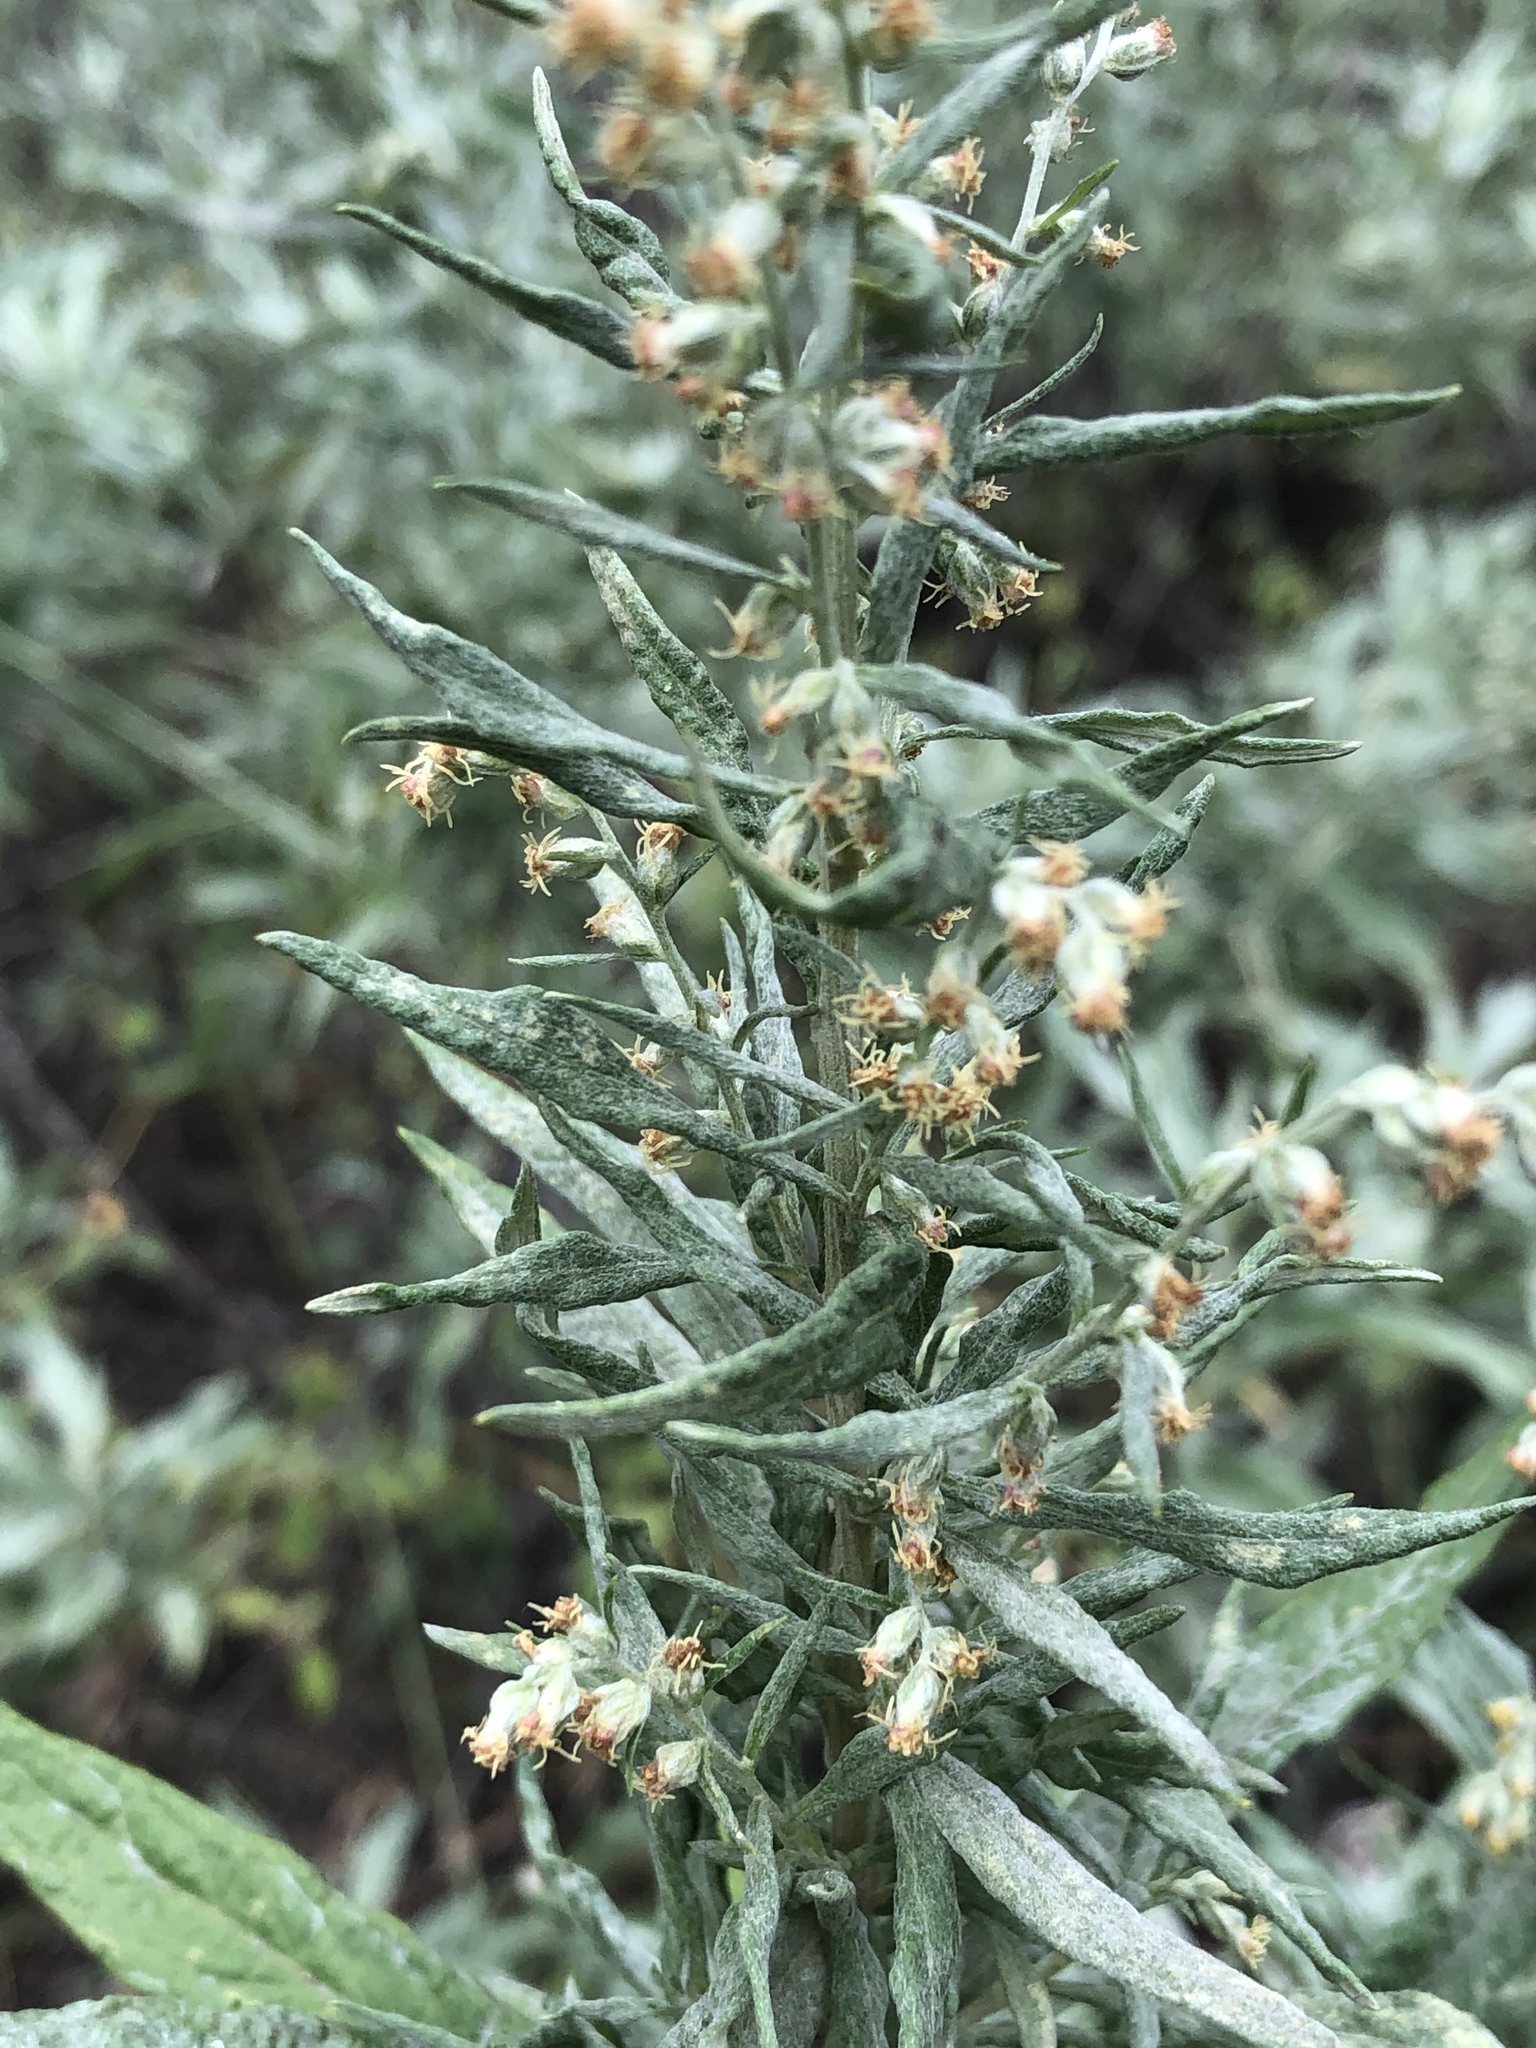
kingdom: Plantae
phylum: Tracheophyta
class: Magnoliopsida
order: Asterales
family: Asteraceae
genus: Artemisia
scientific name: Artemisia ludoviciana
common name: Western mugwort
